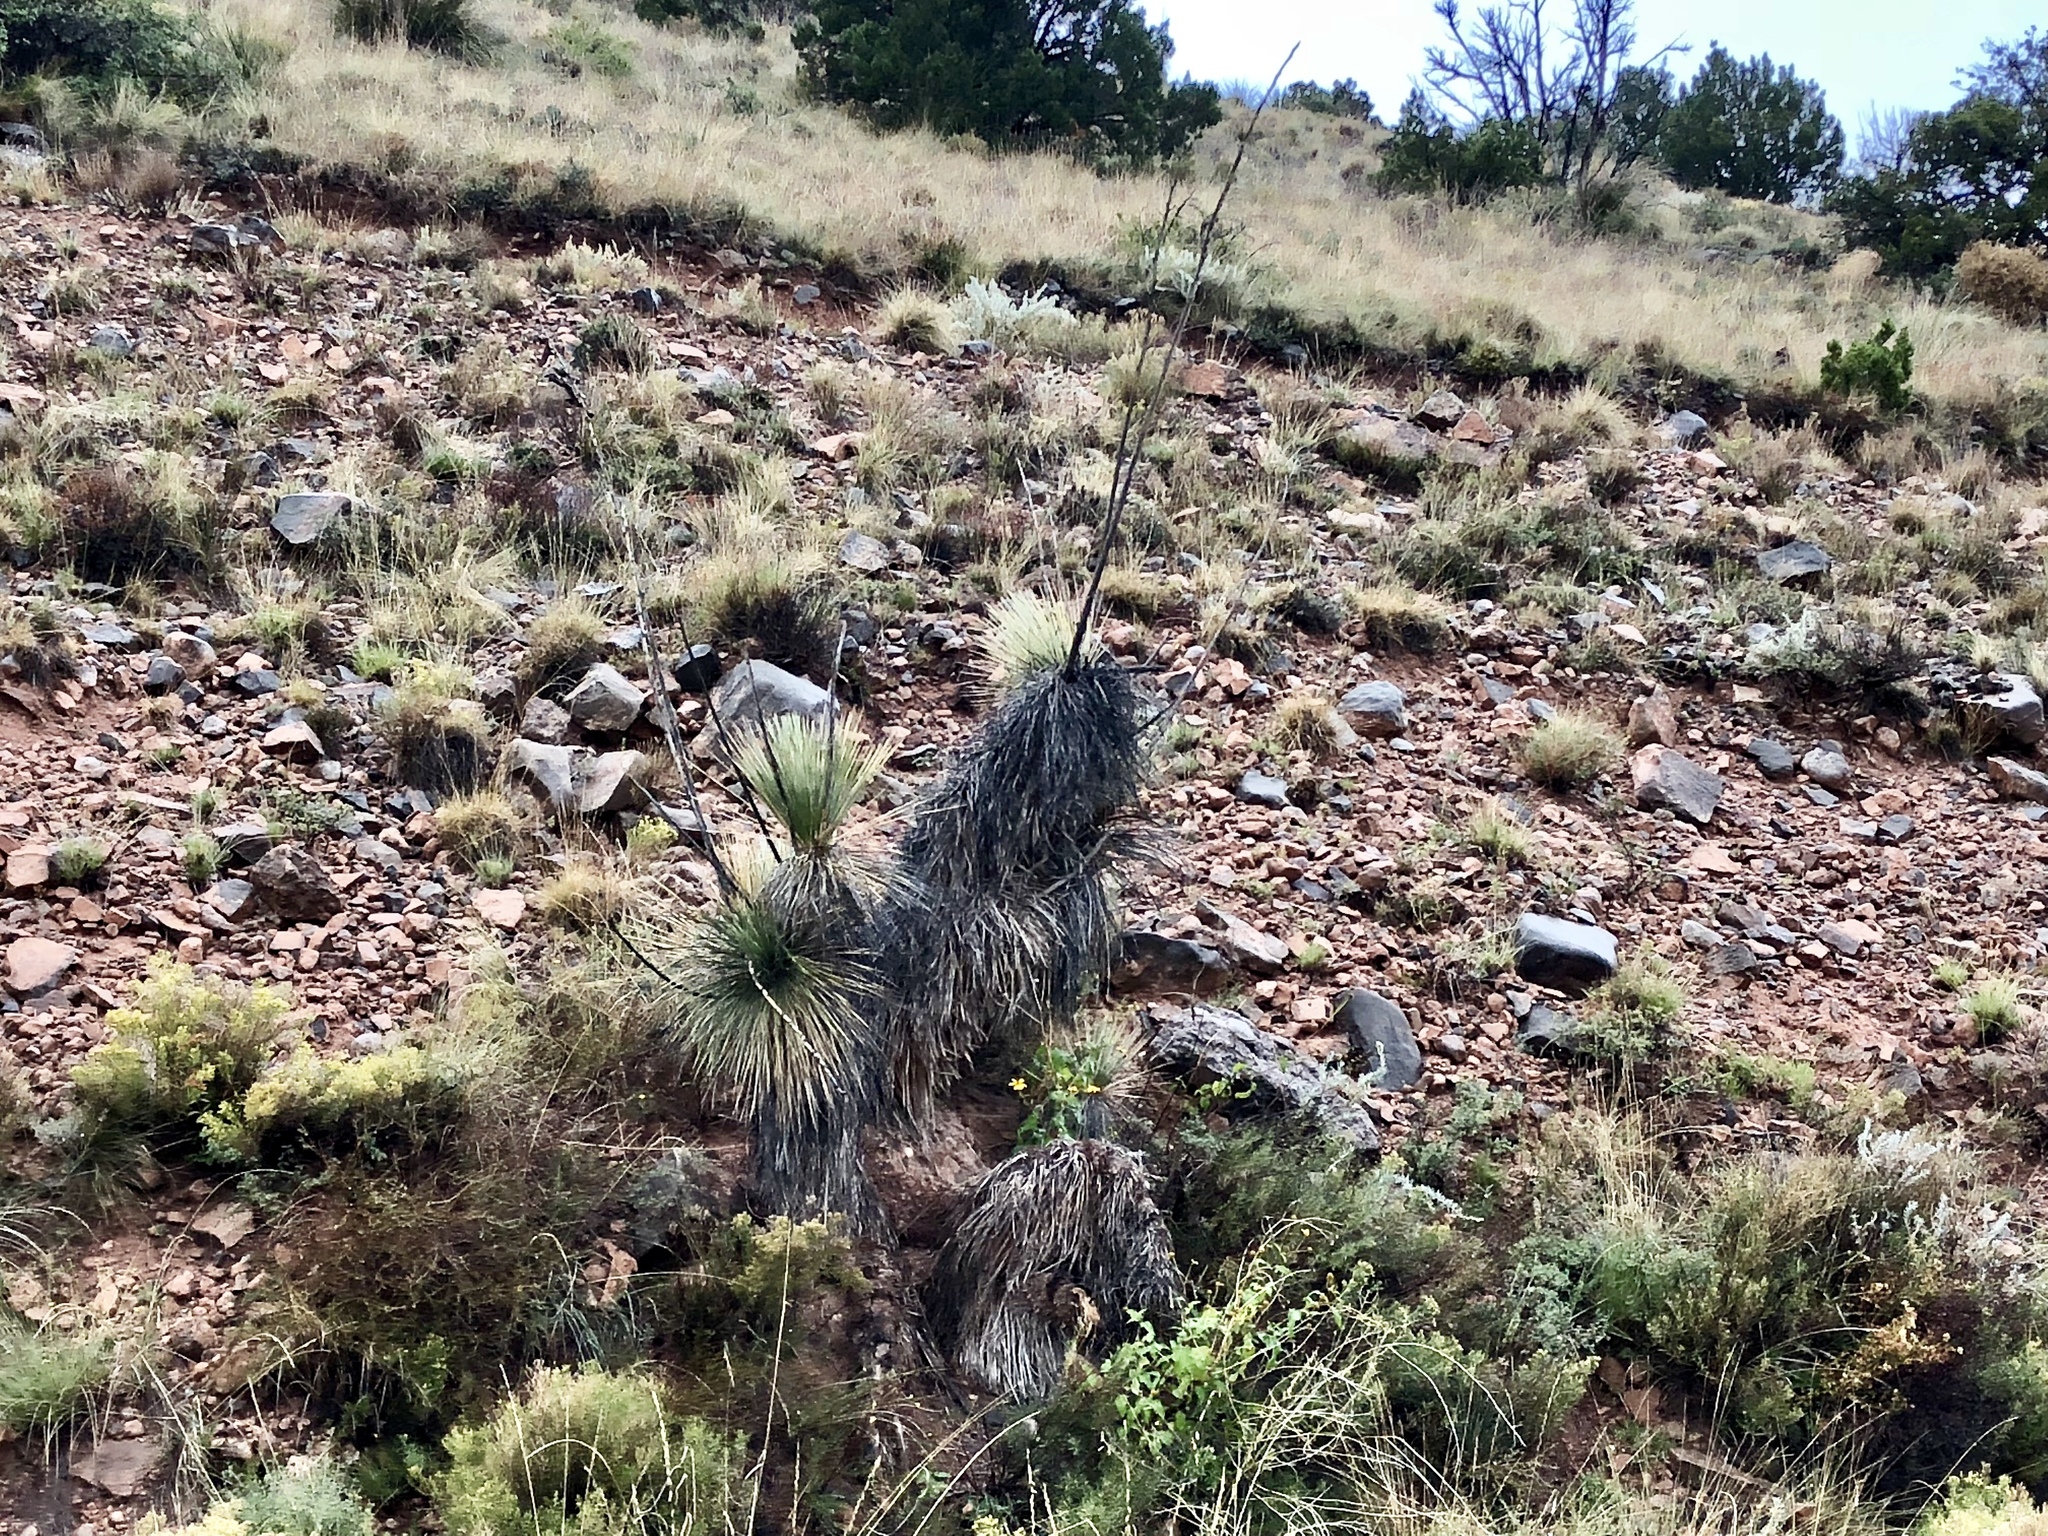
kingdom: Plantae
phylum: Tracheophyta
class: Liliopsida
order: Asparagales
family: Asparagaceae
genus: Yucca
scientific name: Yucca elata
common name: Palmella
